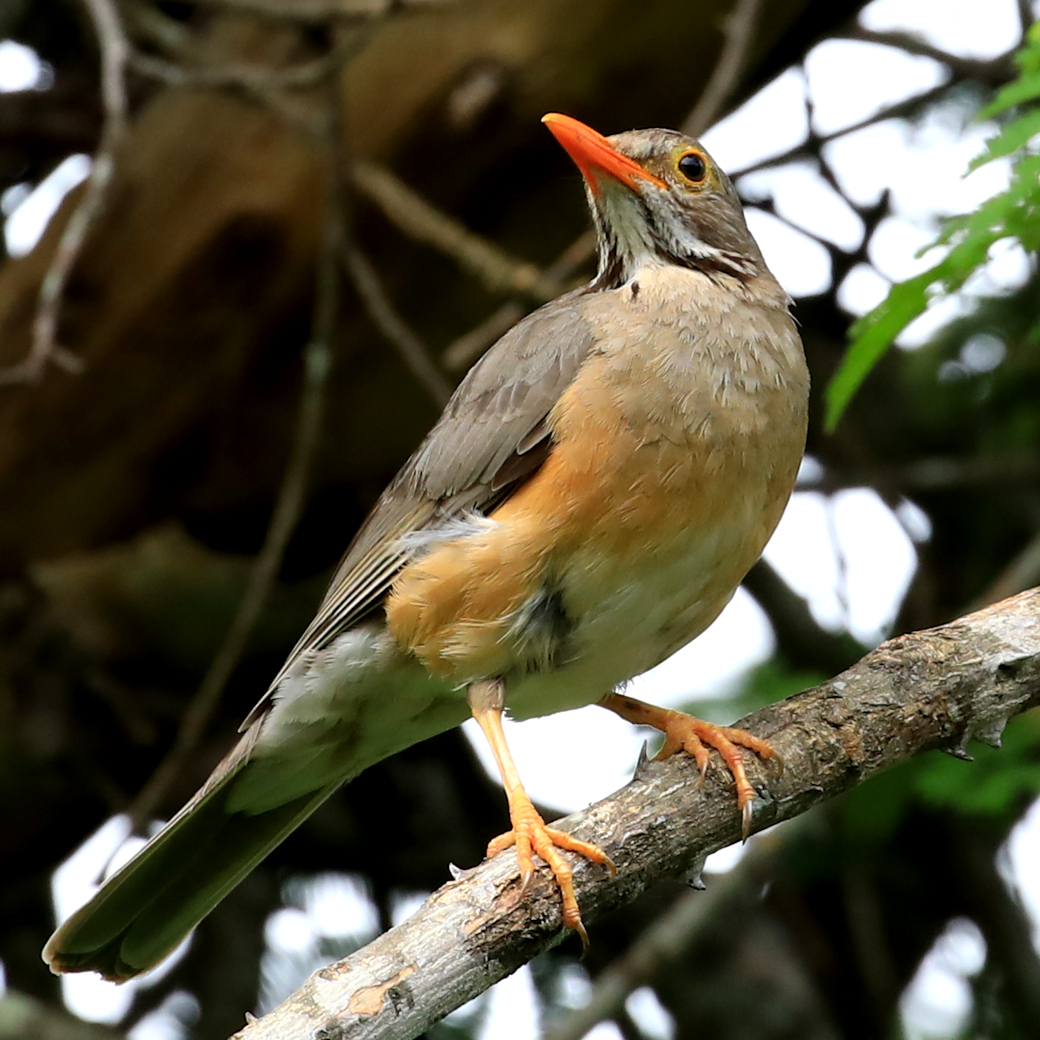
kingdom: Animalia
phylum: Chordata
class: Aves
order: Passeriformes
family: Turdidae
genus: Turdus
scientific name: Turdus libonyana
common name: Kurrichane thrush
